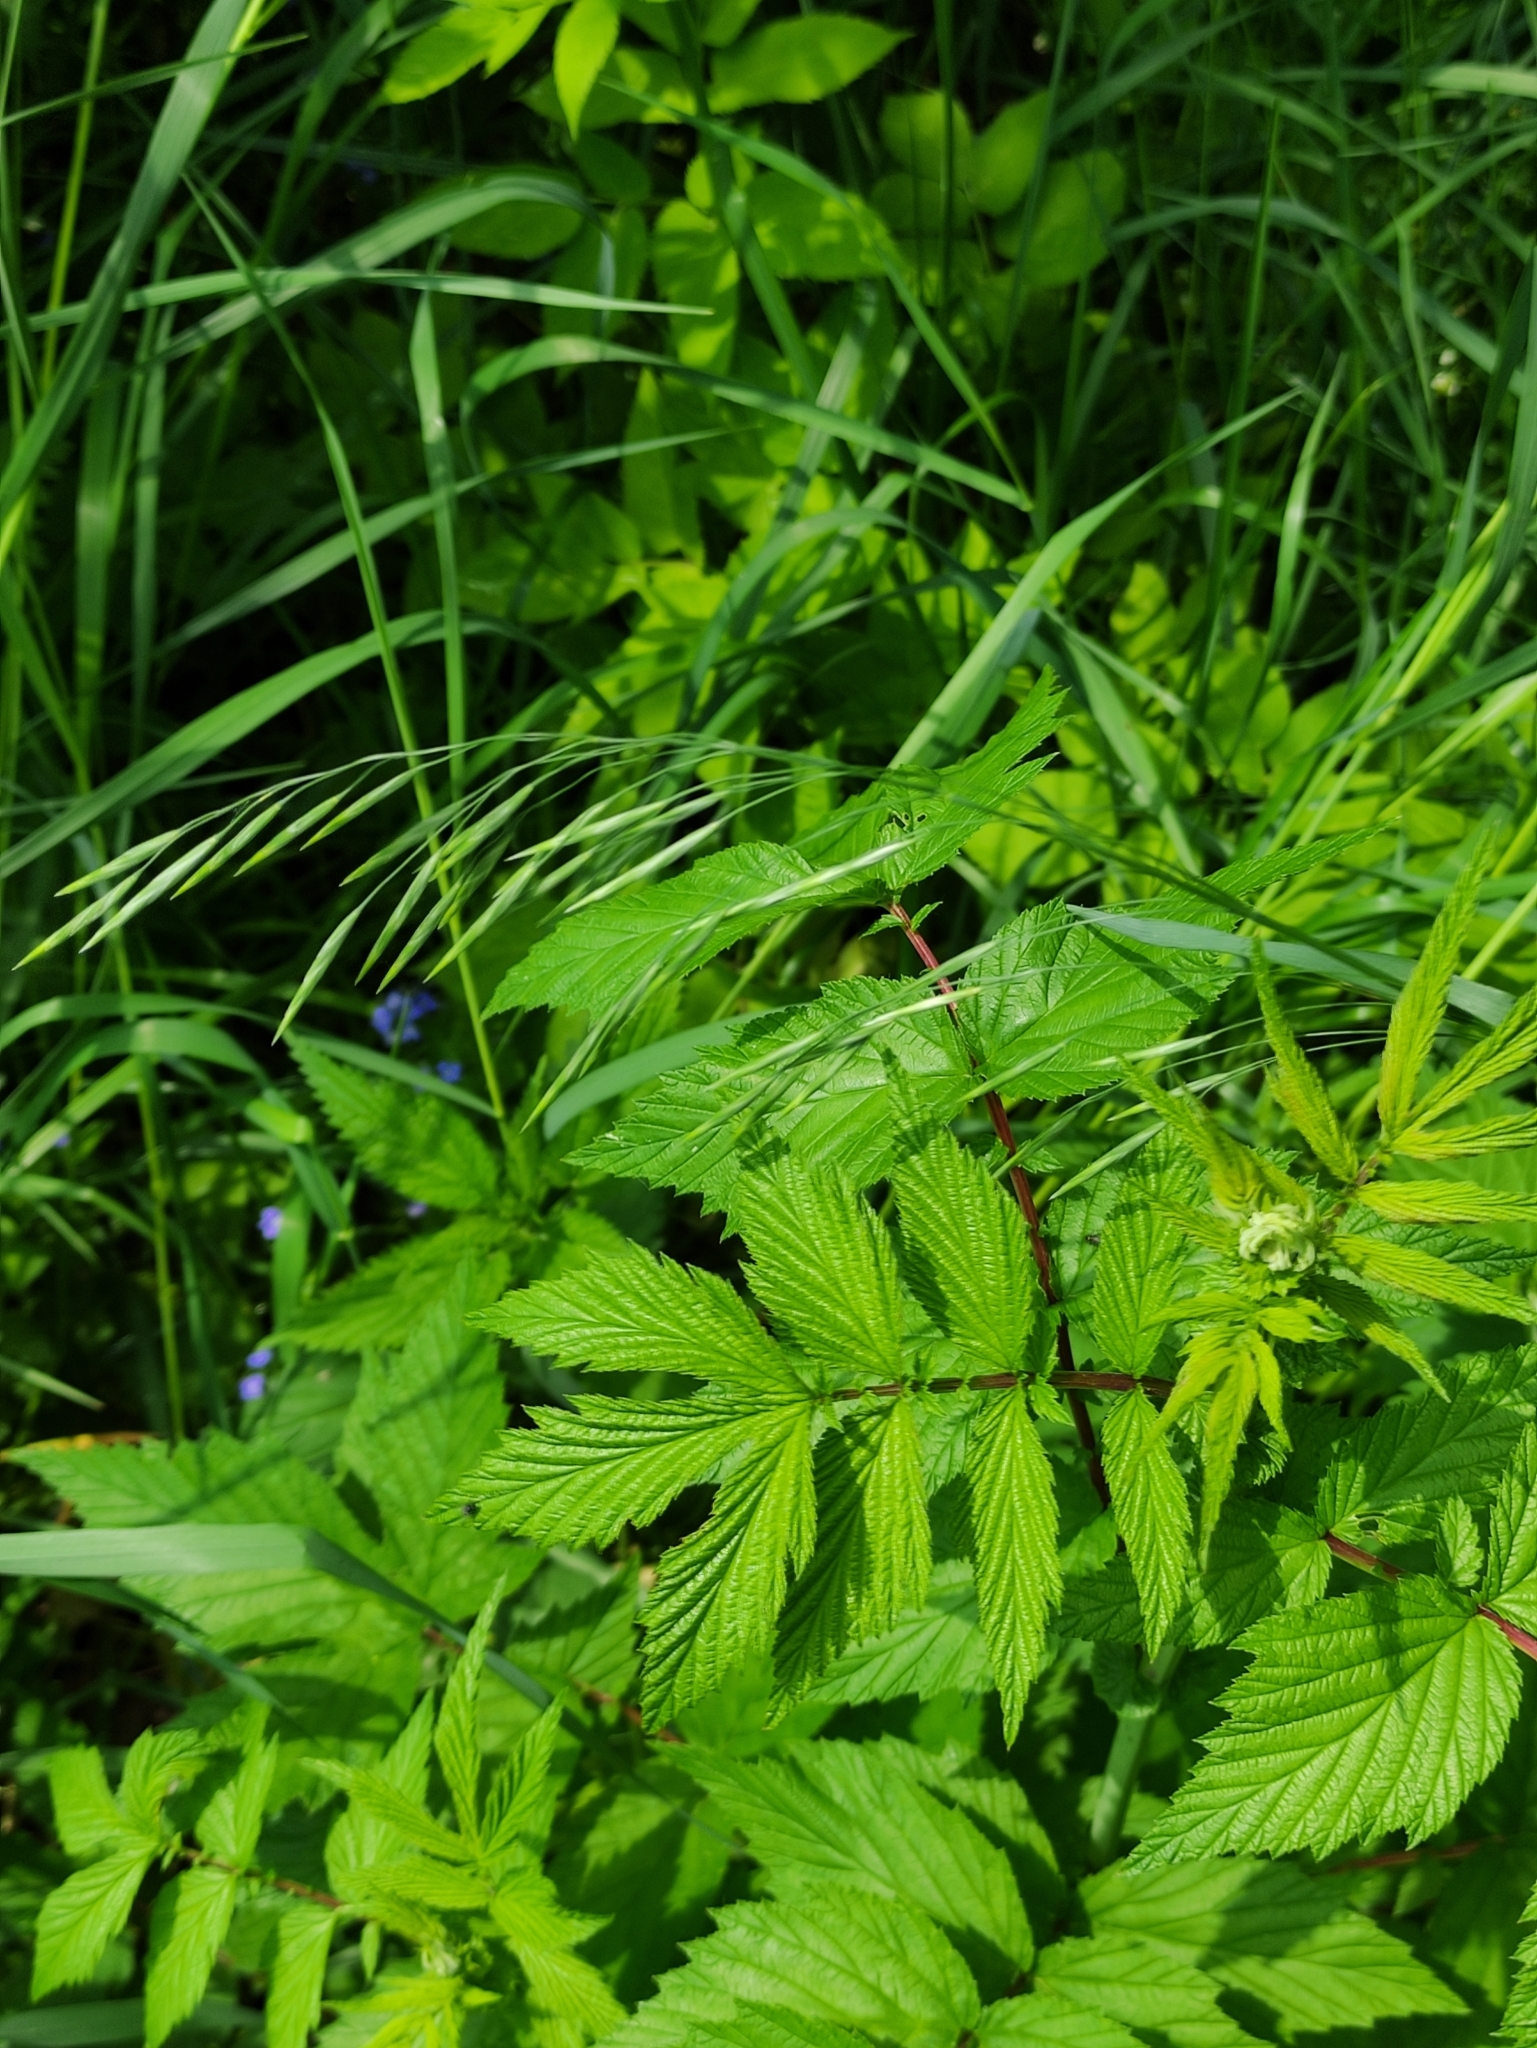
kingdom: Plantae
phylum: Tracheophyta
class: Liliopsida
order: Poales
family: Poaceae
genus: Bromus
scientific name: Bromus inermis
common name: Smooth brome
